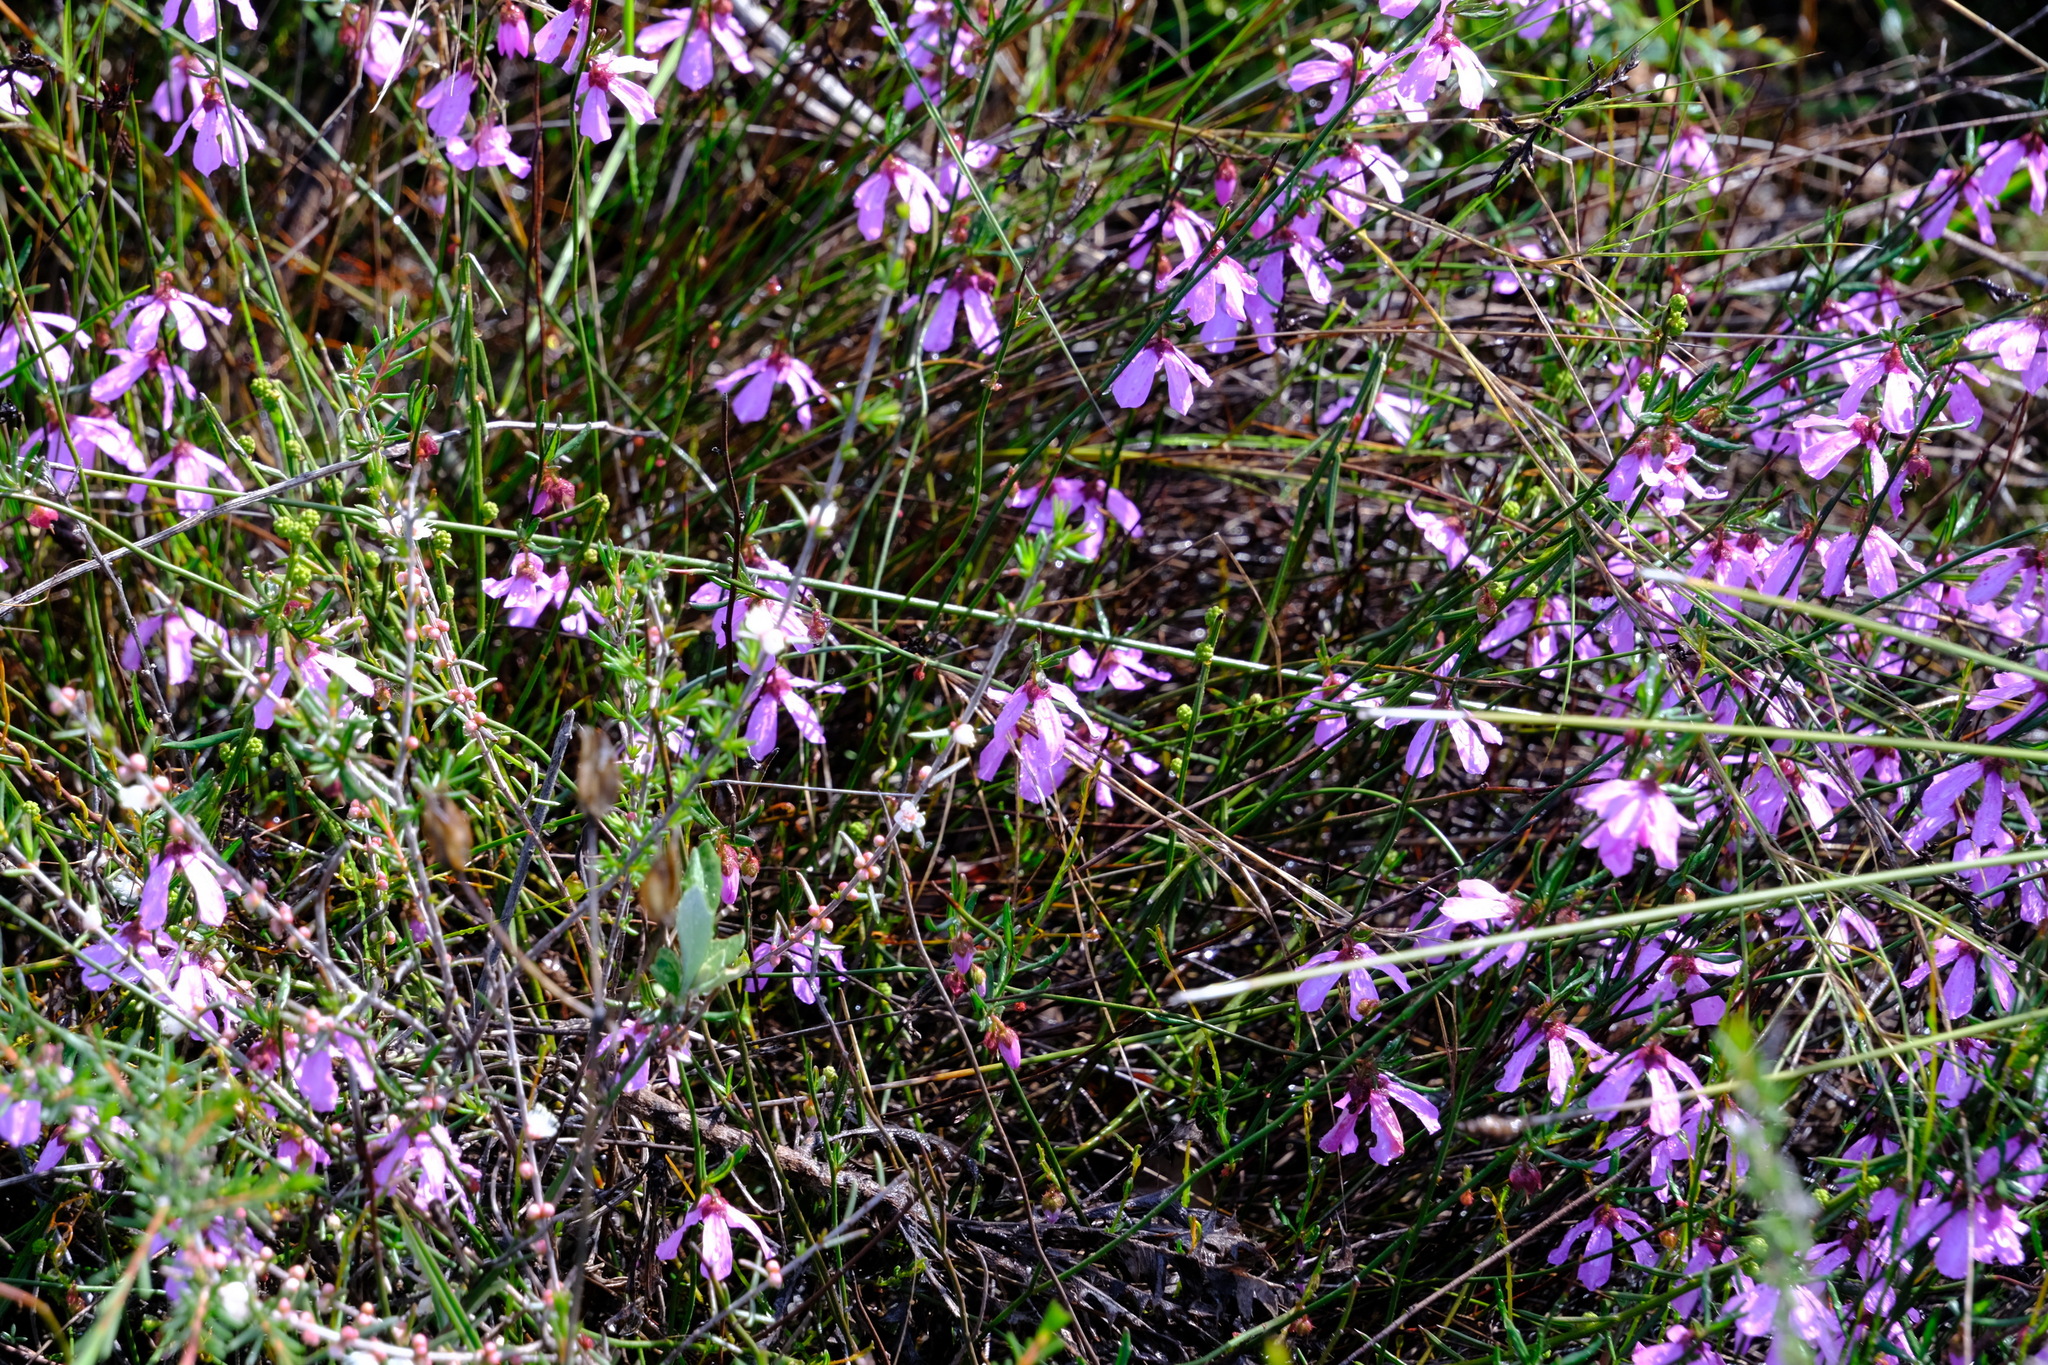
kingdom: Plantae
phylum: Tracheophyta
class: Magnoliopsida
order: Oxalidales
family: Elaeocarpaceae
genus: Tetratheca
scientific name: Tetratheca confertifolia
